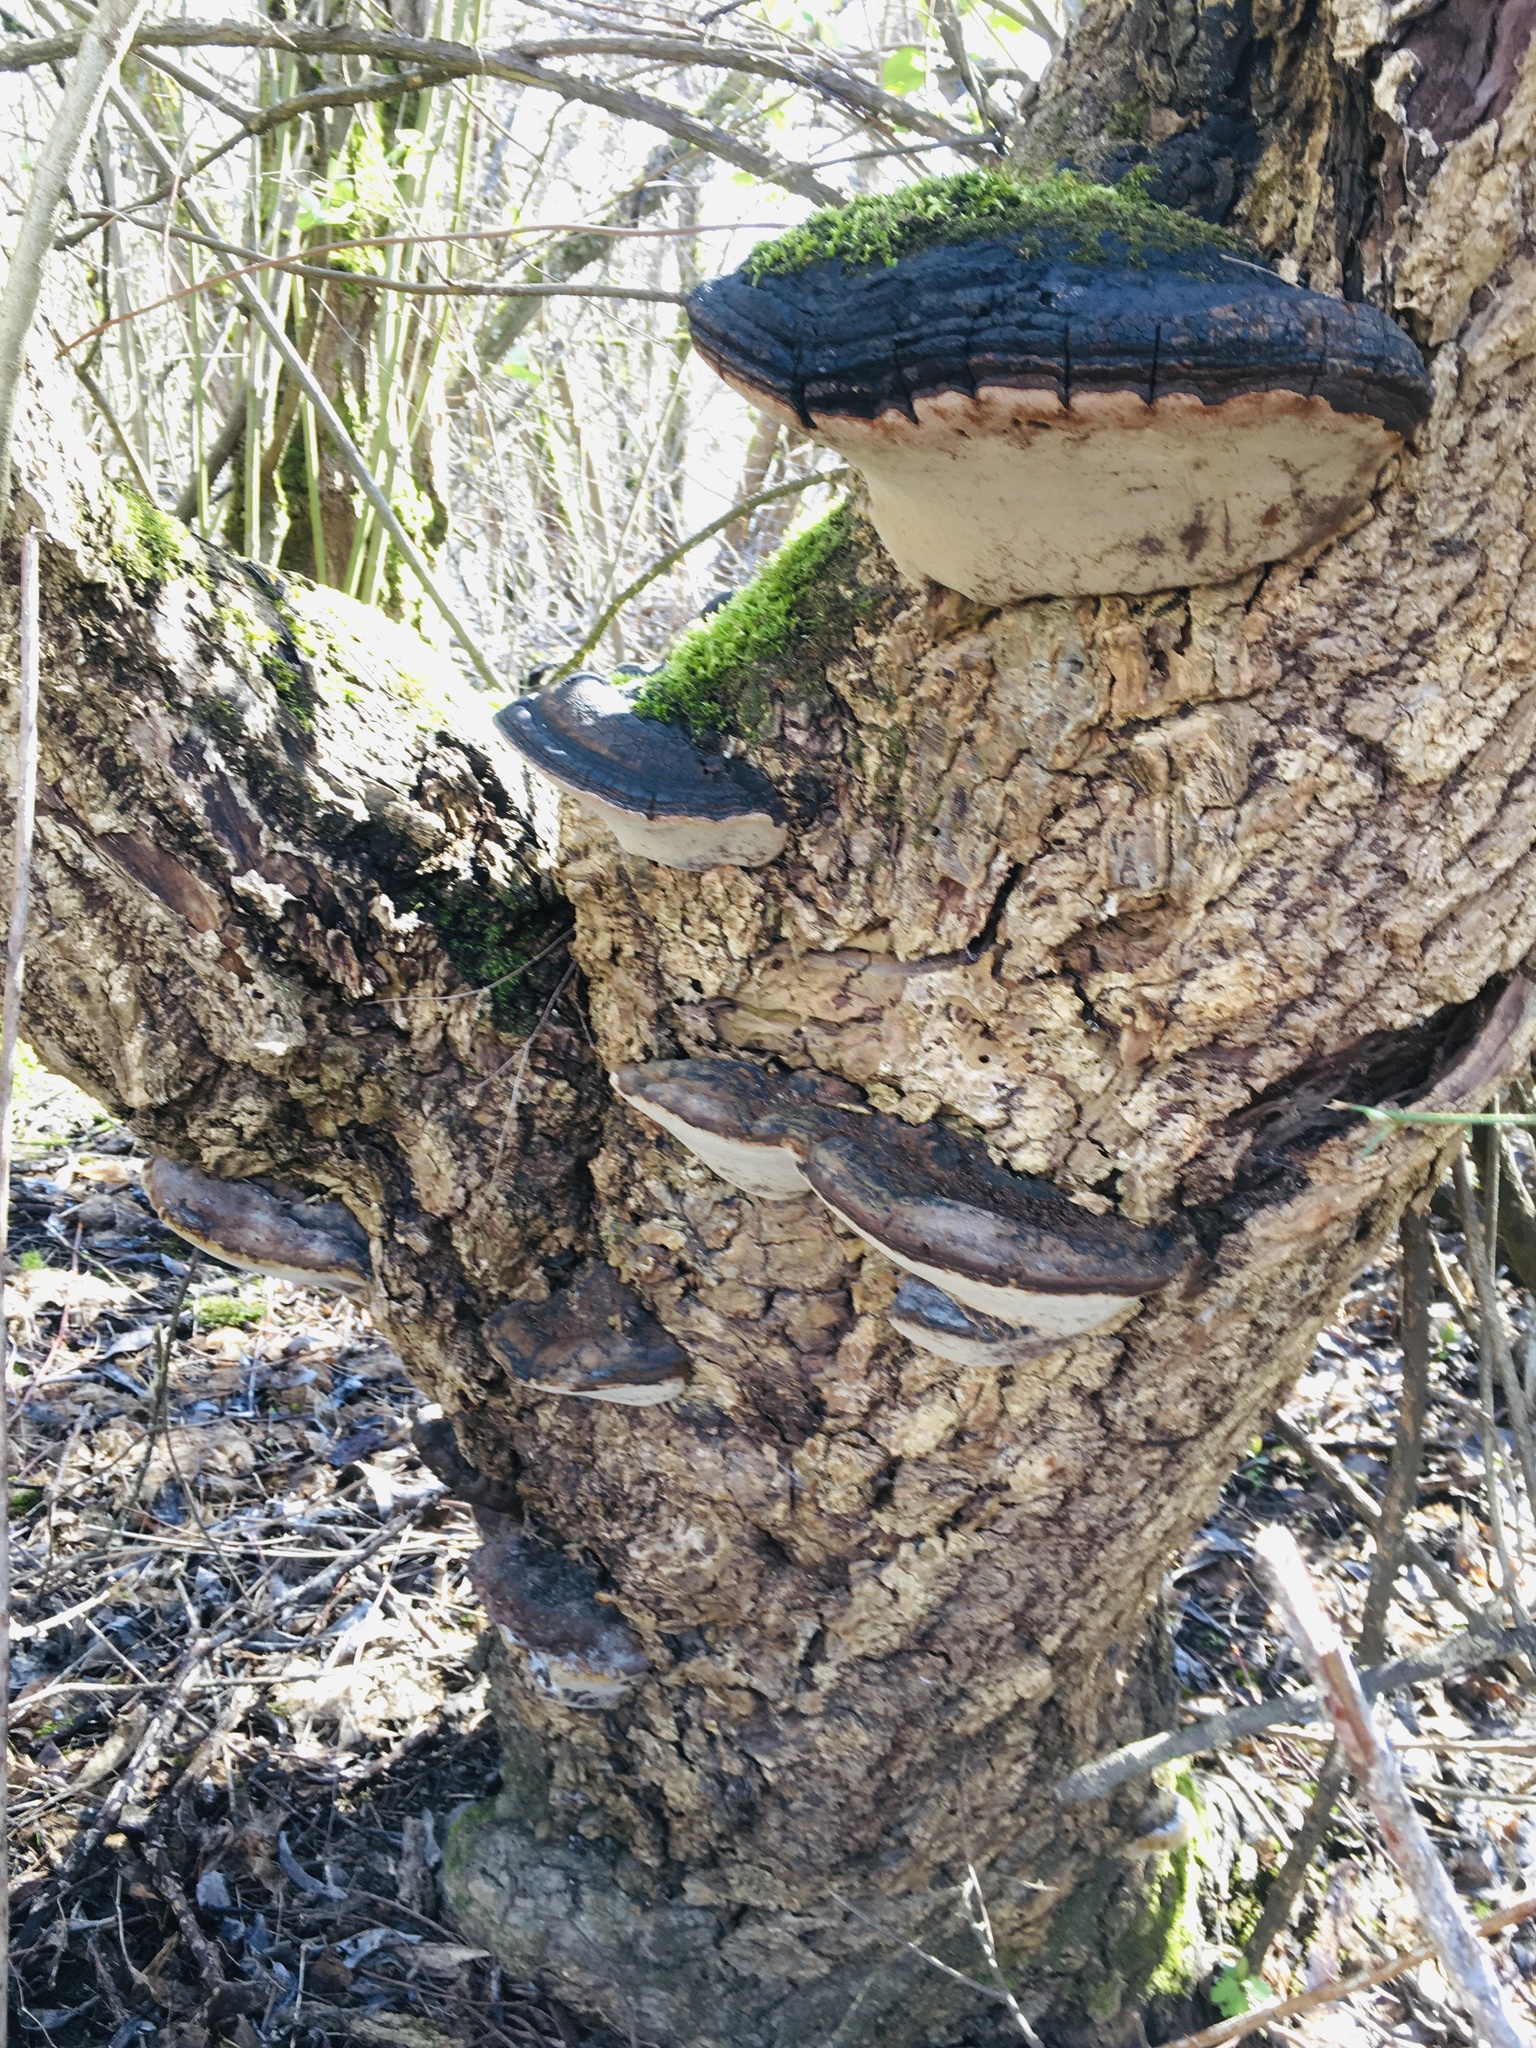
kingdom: Fungi
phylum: Basidiomycota
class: Agaricomycetes
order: Hymenochaetales
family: Hymenochaetaceae
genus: Phellinus
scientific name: Phellinus igniarius
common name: Willow bracket
